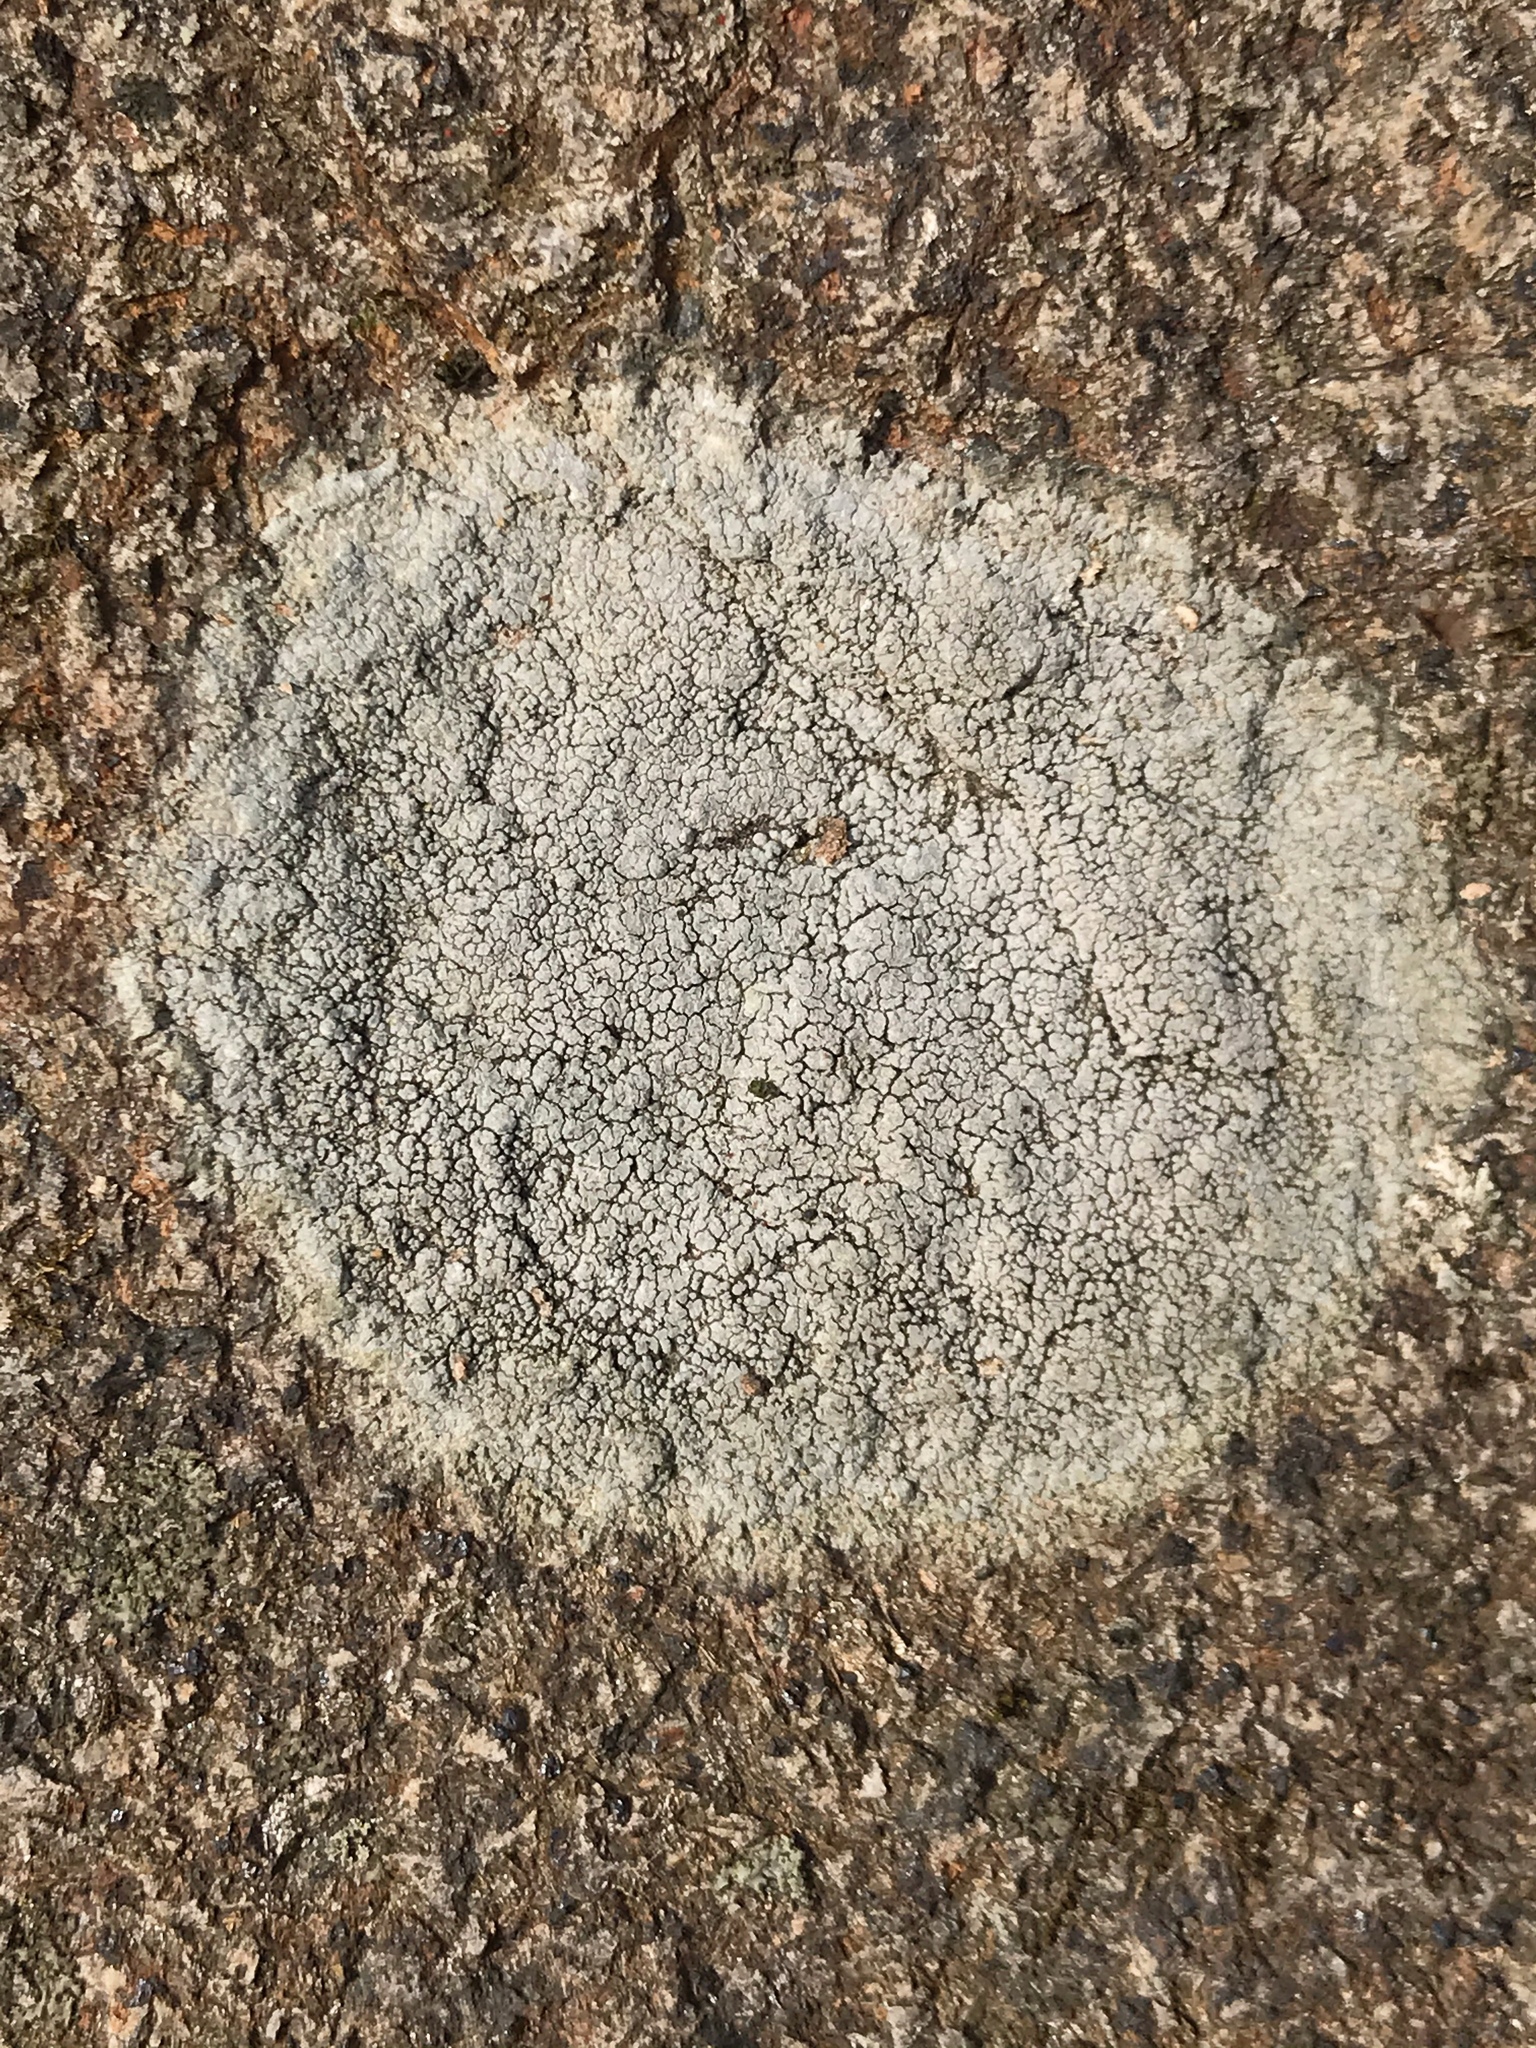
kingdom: Fungi
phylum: Ascomycota
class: Lecanoromycetes
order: Pertusariales
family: Megasporaceae
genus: Aspicilia
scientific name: Aspicilia laevata
